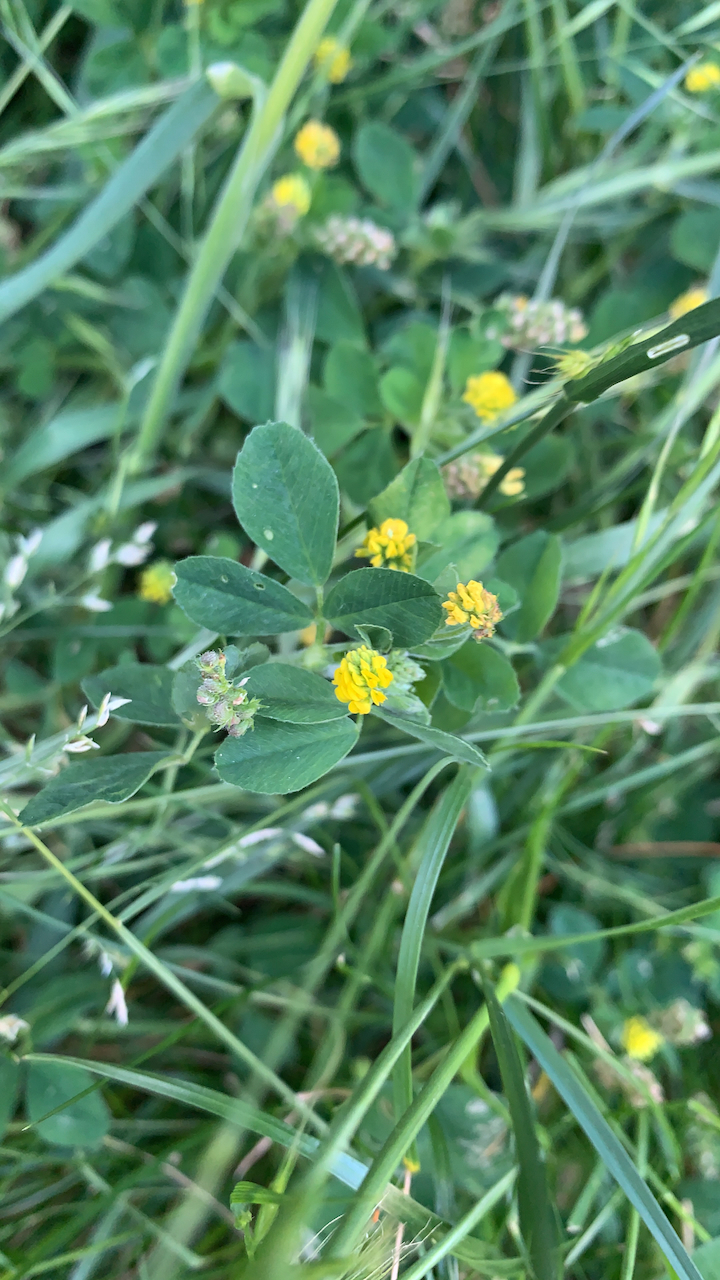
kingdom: Plantae
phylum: Tracheophyta
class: Magnoliopsida
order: Fabales
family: Fabaceae
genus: Medicago
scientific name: Medicago lupulina
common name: Black medick
